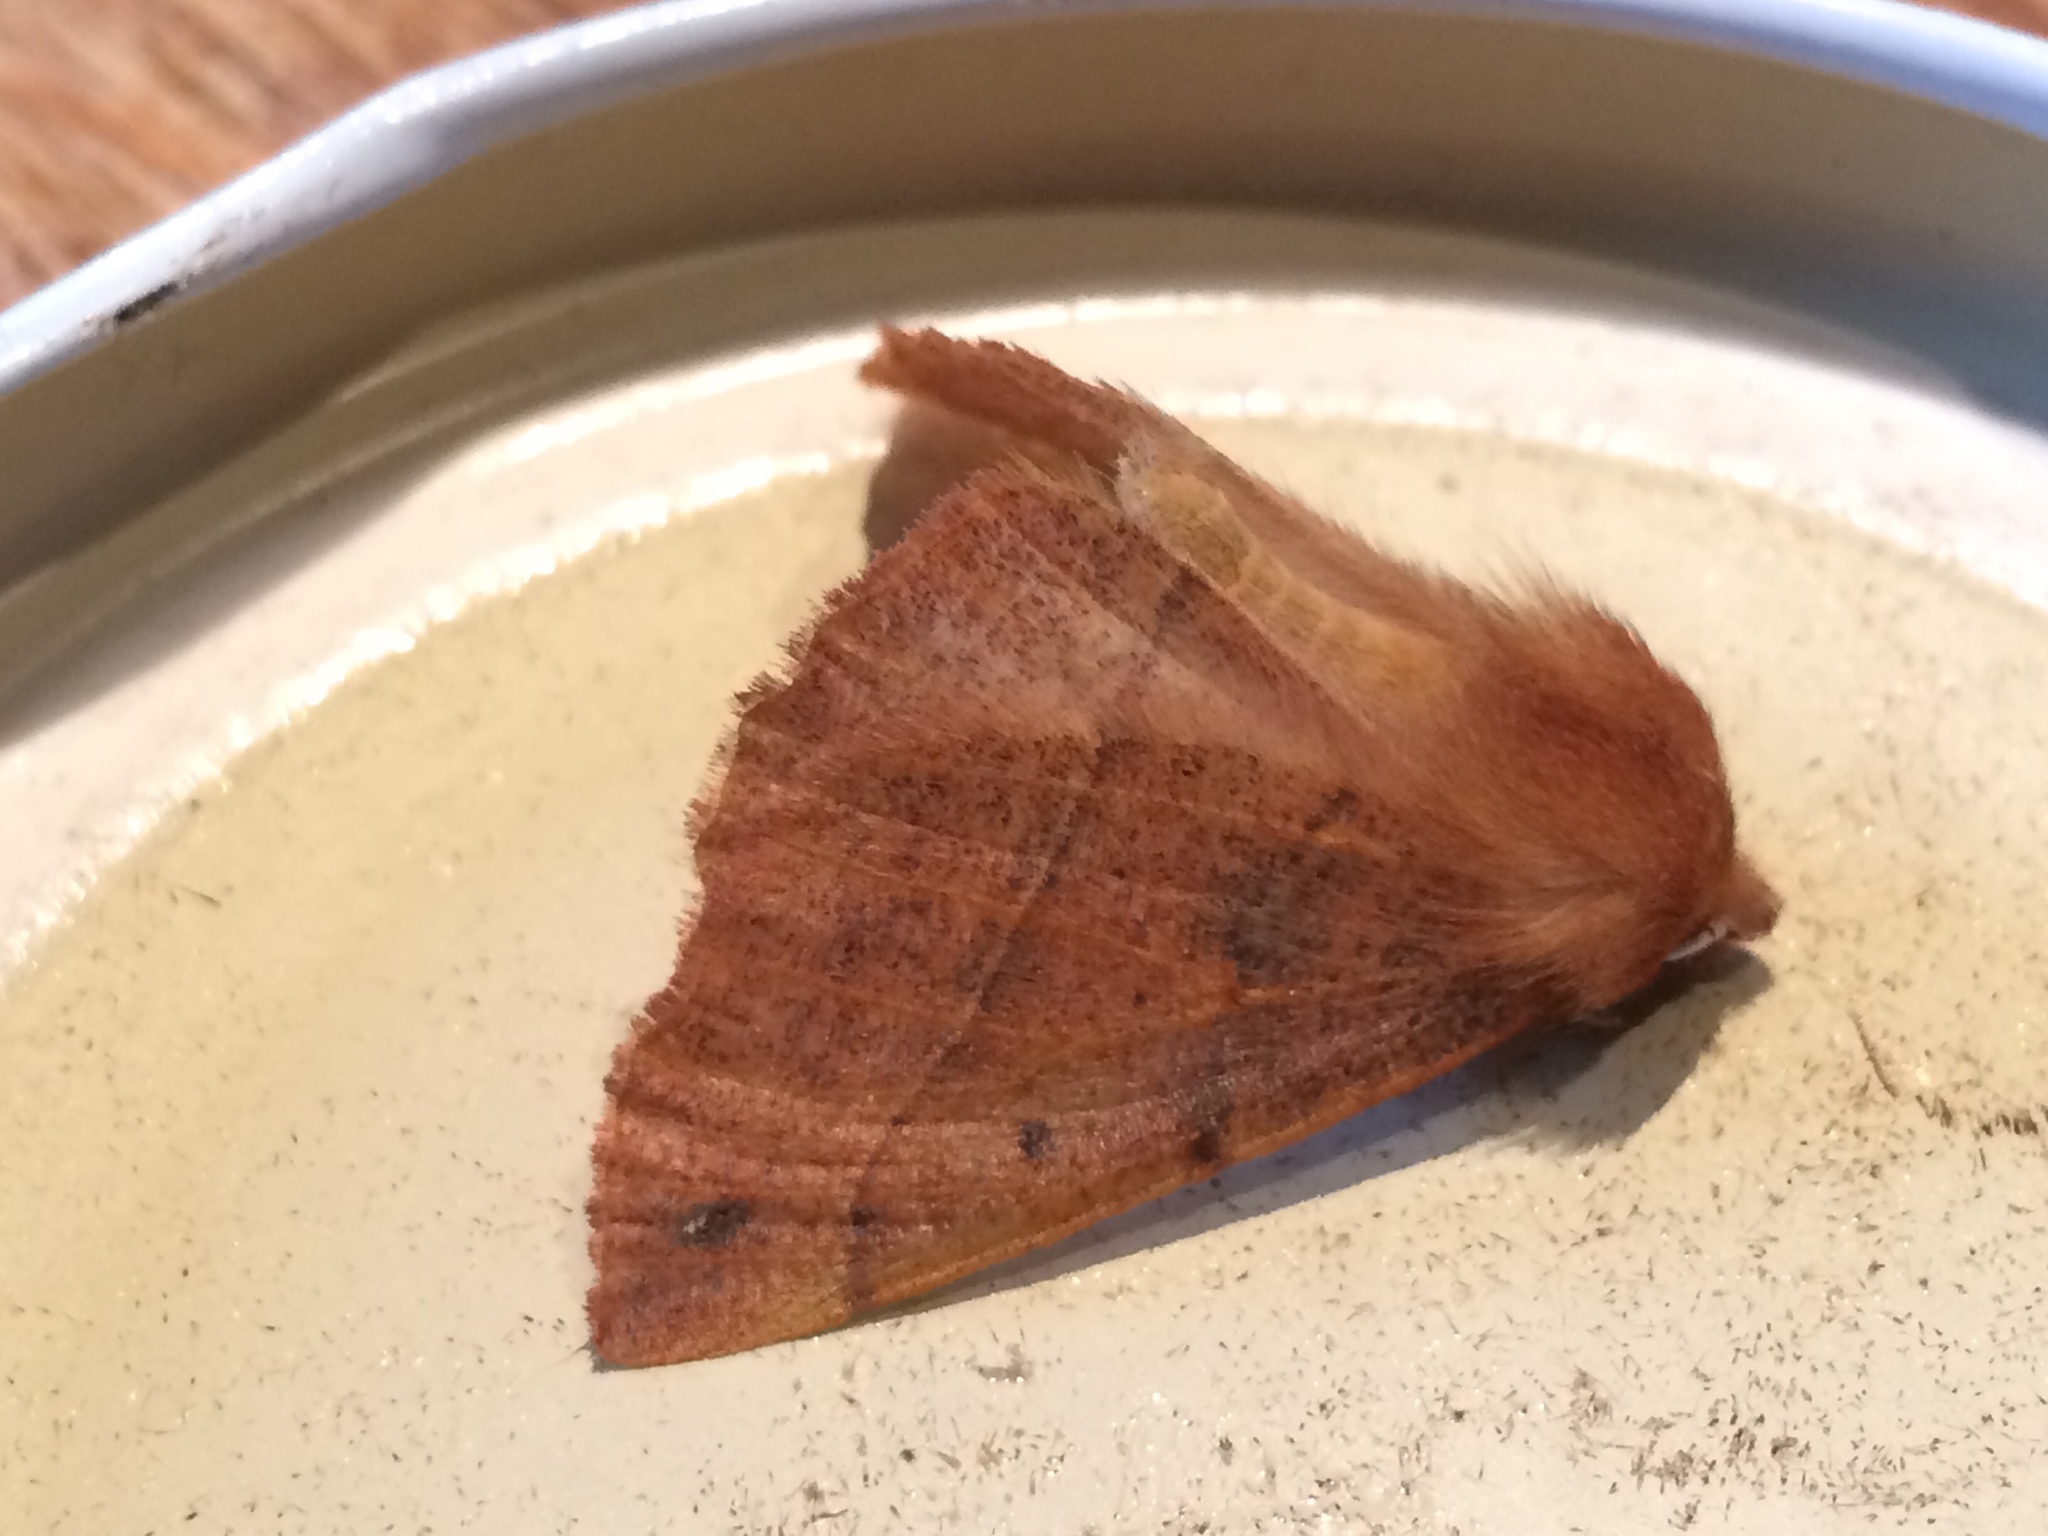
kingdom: Animalia
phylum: Arthropoda
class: Insecta
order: Lepidoptera
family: Geometridae
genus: Colotois
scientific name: Colotois pennaria
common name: Feathered thorn
